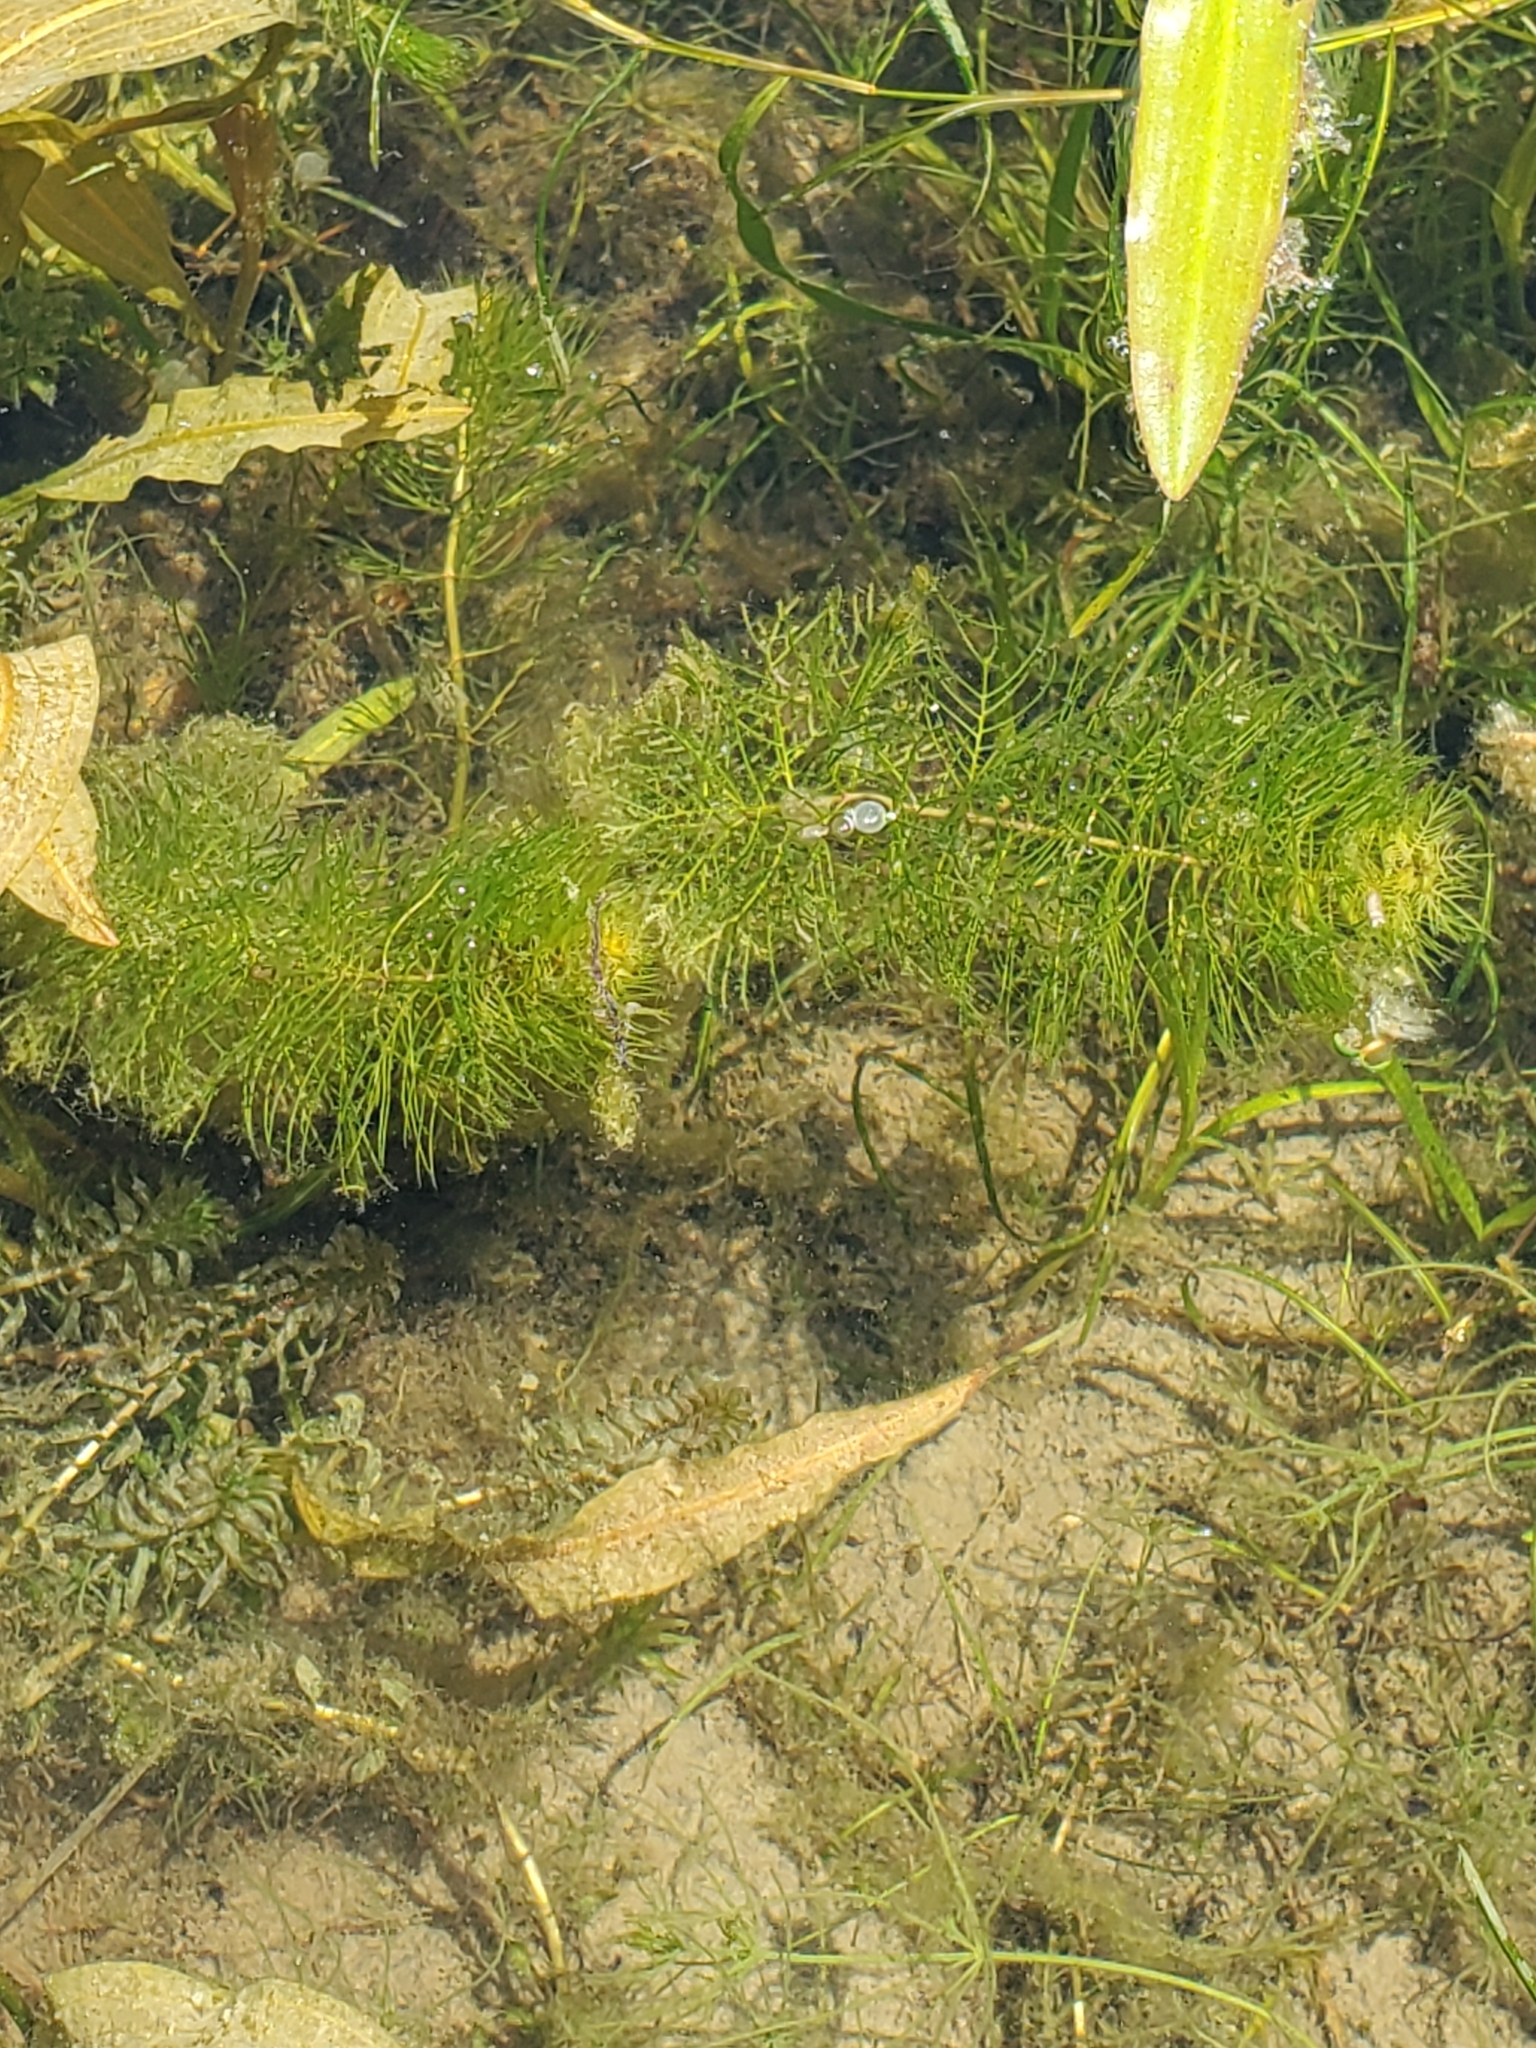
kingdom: Plantae
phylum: Tracheophyta
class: Magnoliopsida
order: Saxifragales
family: Haloragaceae
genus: Myriophyllum
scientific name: Myriophyllum sibiricum
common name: Siberian water-milfoil
